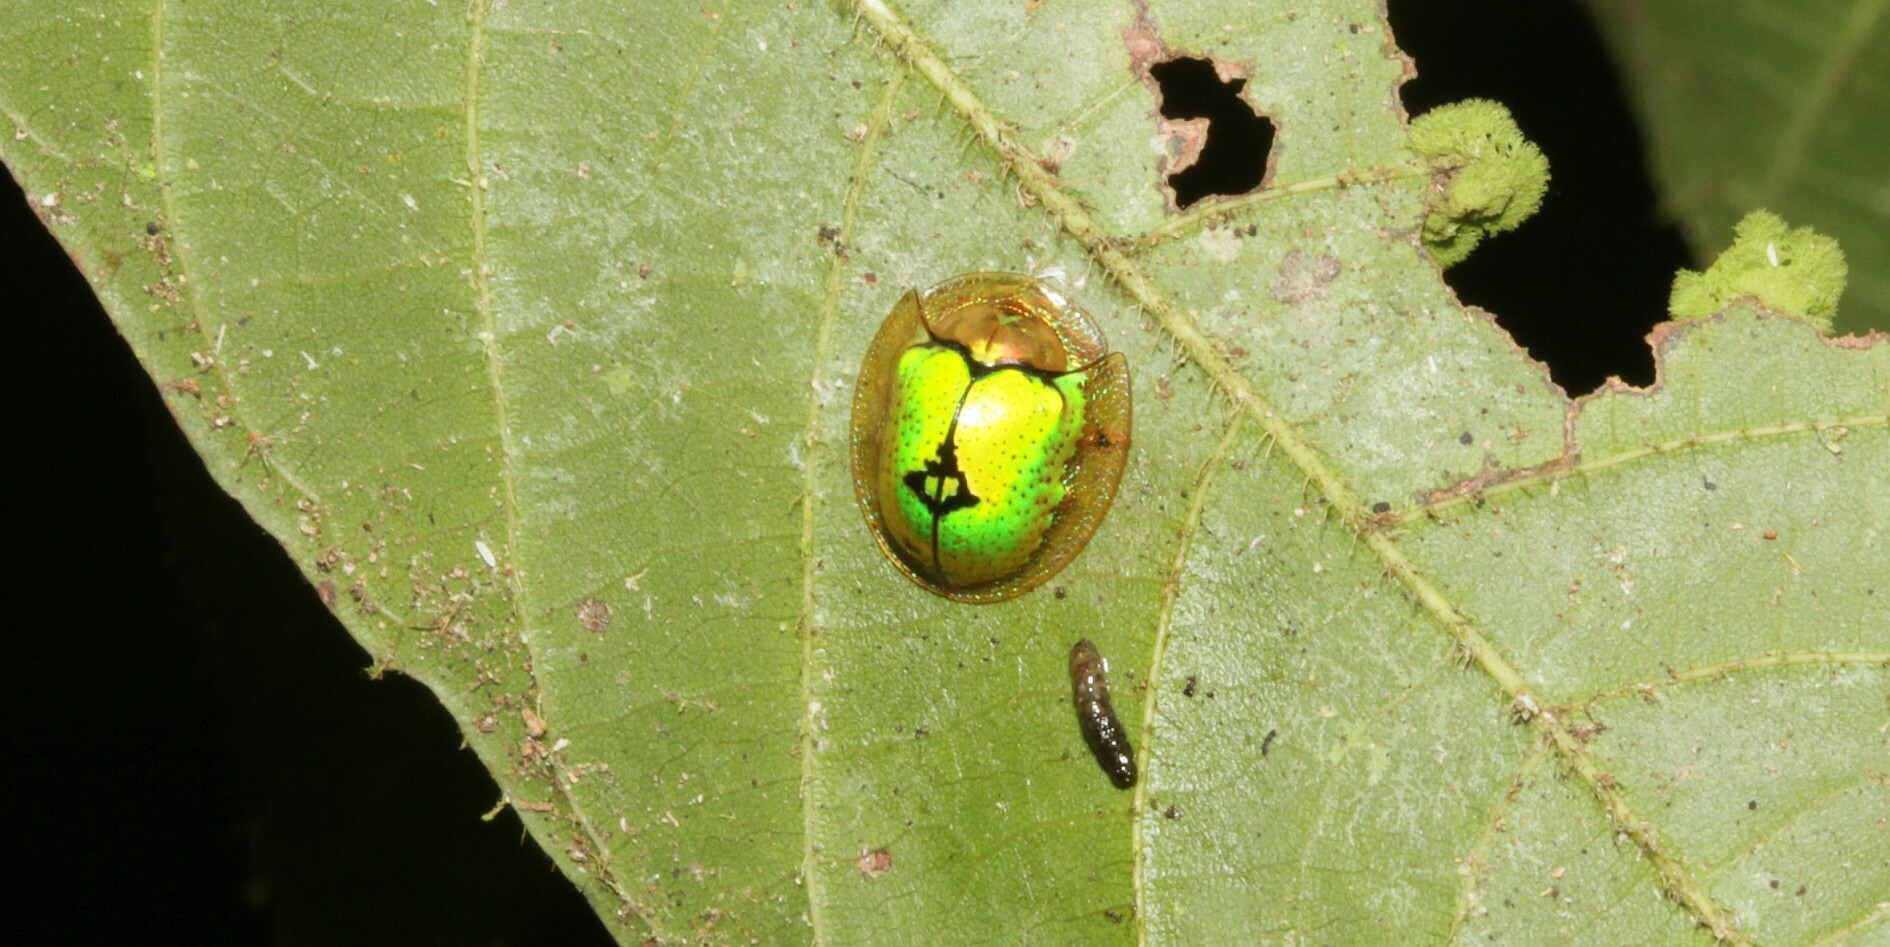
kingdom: Animalia
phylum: Arthropoda
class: Insecta
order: Coleoptera
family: Chrysomelidae
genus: Coptocycla
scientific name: Coptocycla dolosa
